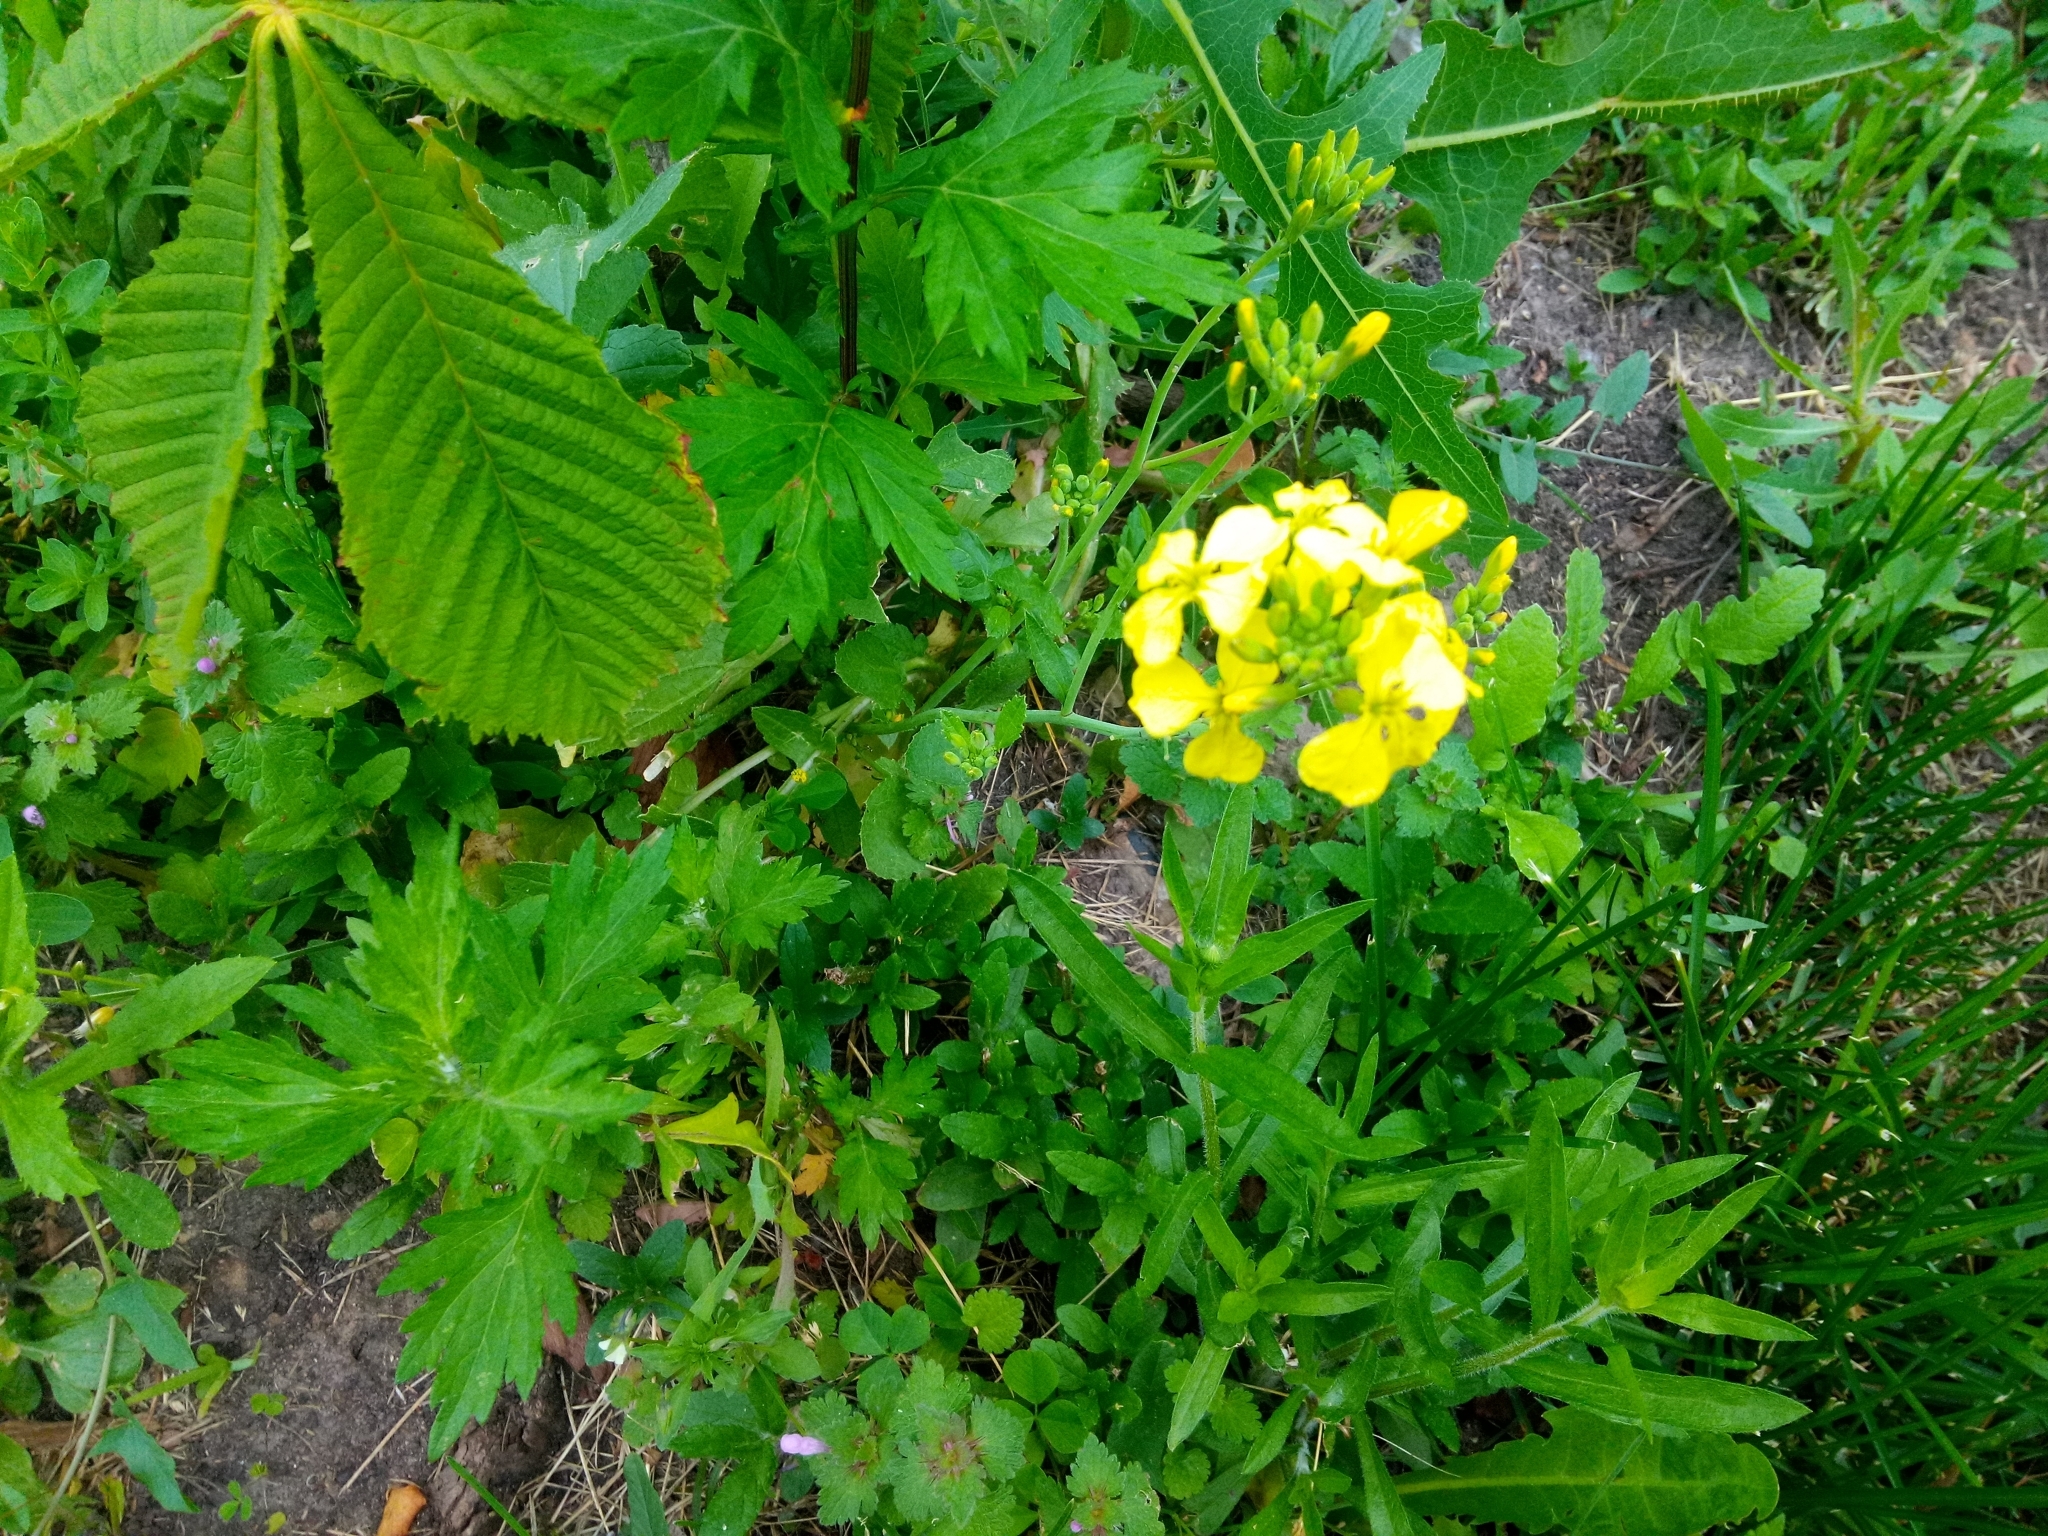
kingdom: Plantae
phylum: Tracheophyta
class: Magnoliopsida
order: Brassicales
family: Brassicaceae
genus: Raphanus
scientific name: Raphanus raphanistrum
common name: Wild radish
